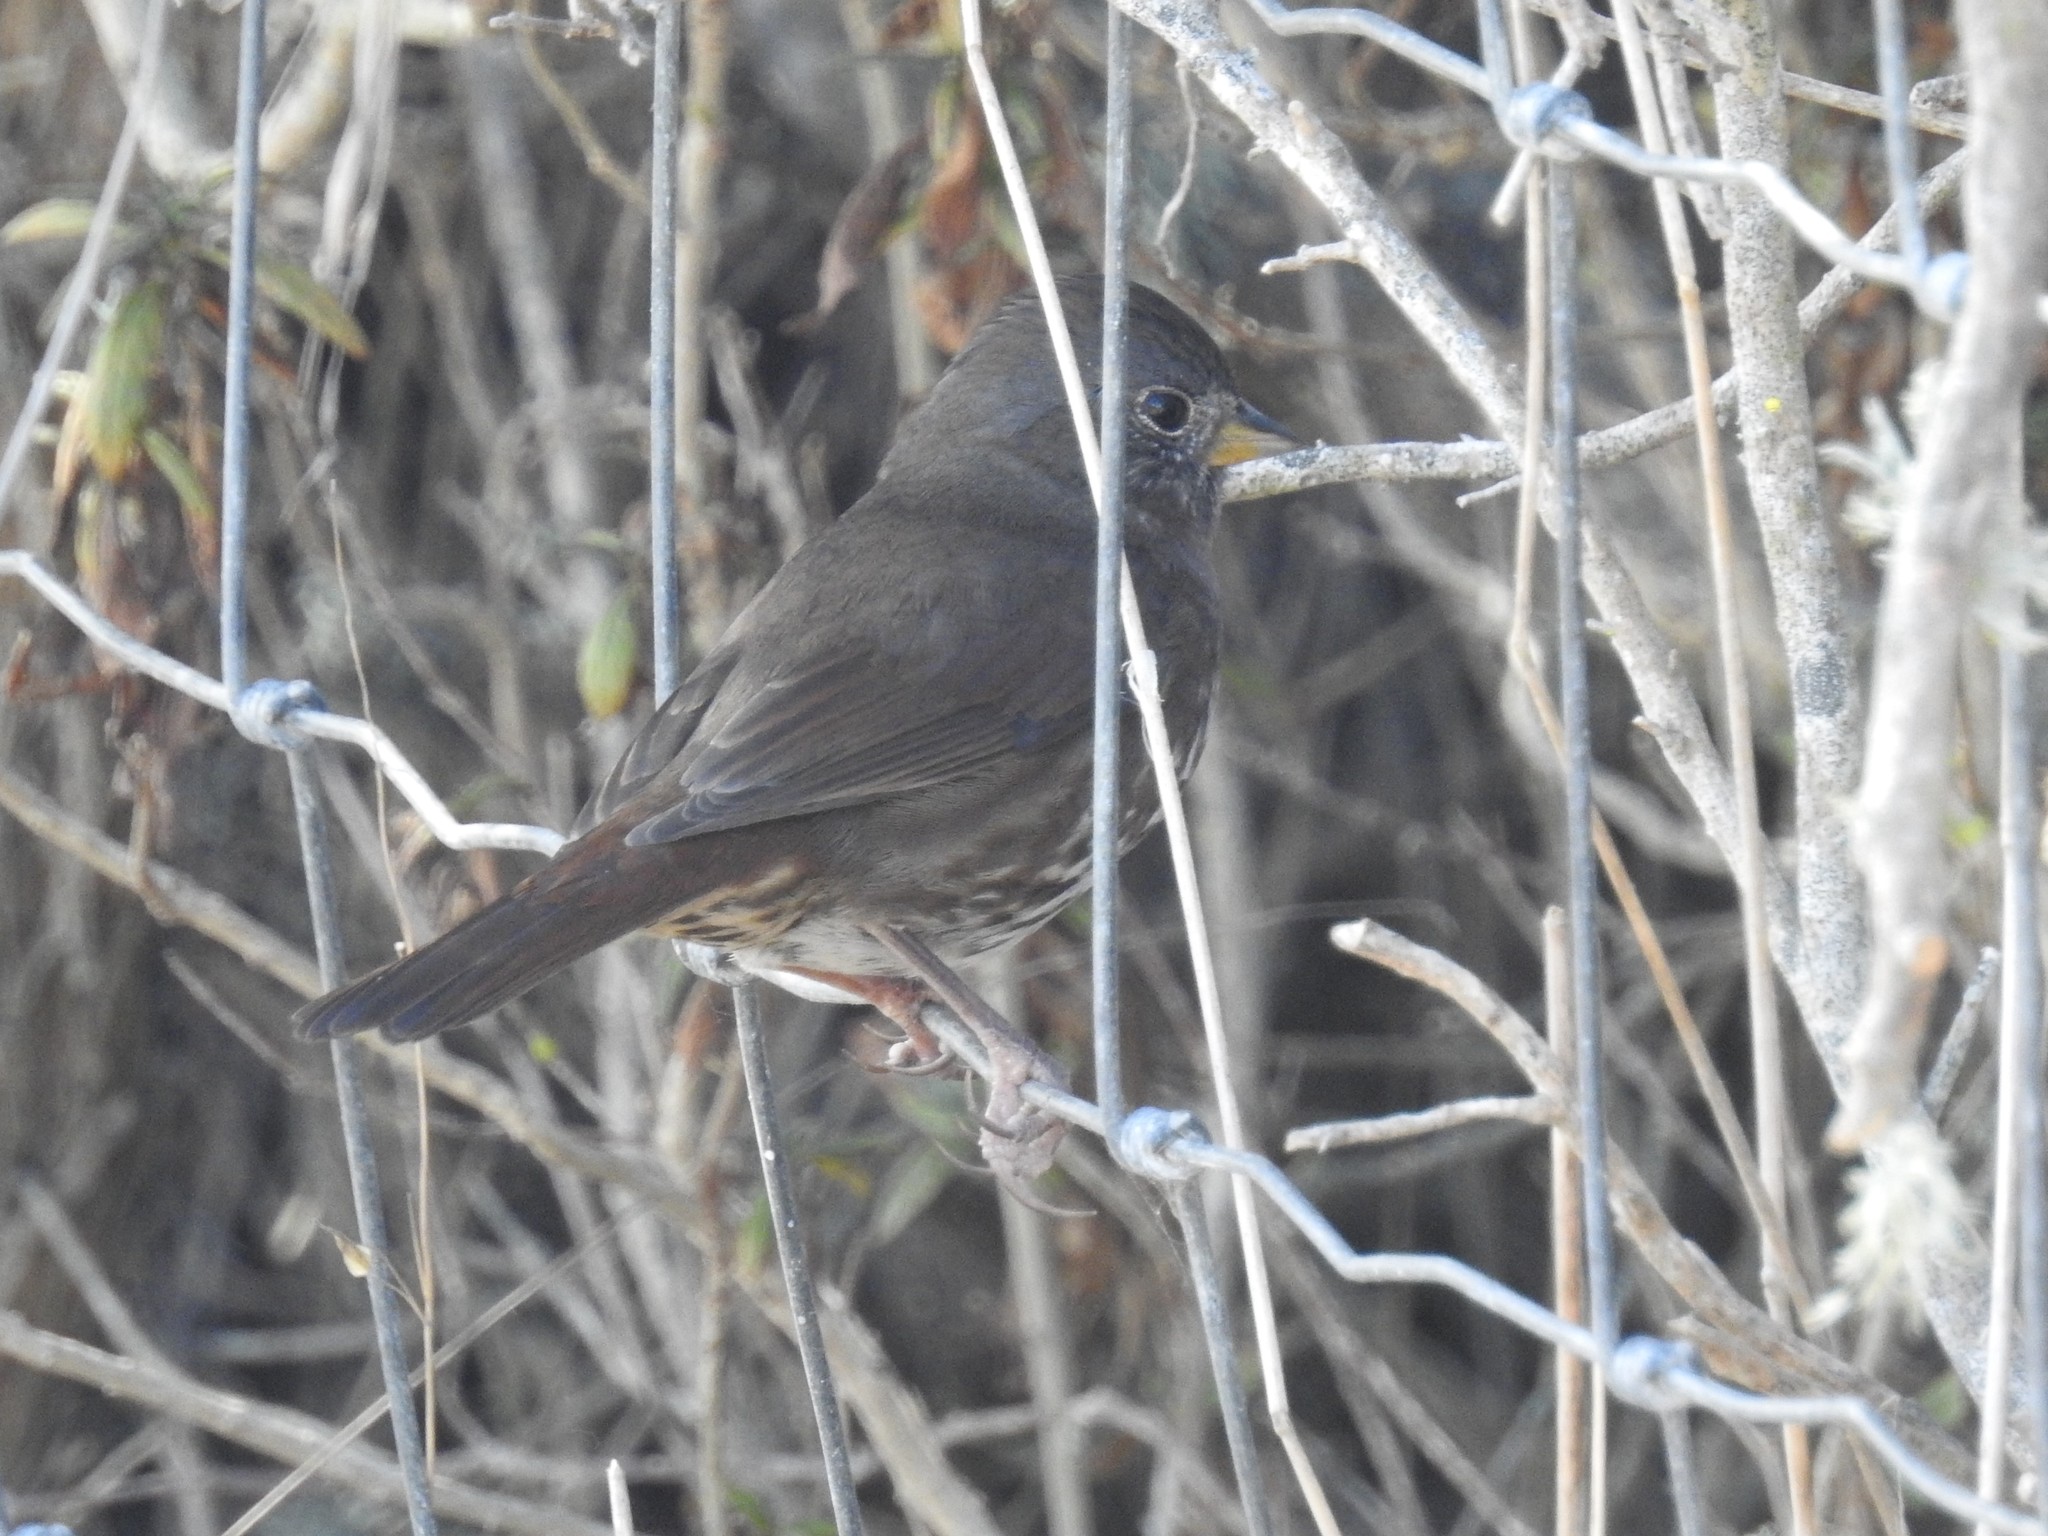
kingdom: Animalia
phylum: Chordata
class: Aves
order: Passeriformes
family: Passerellidae
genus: Passerella
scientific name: Passerella iliaca
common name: Fox sparrow
